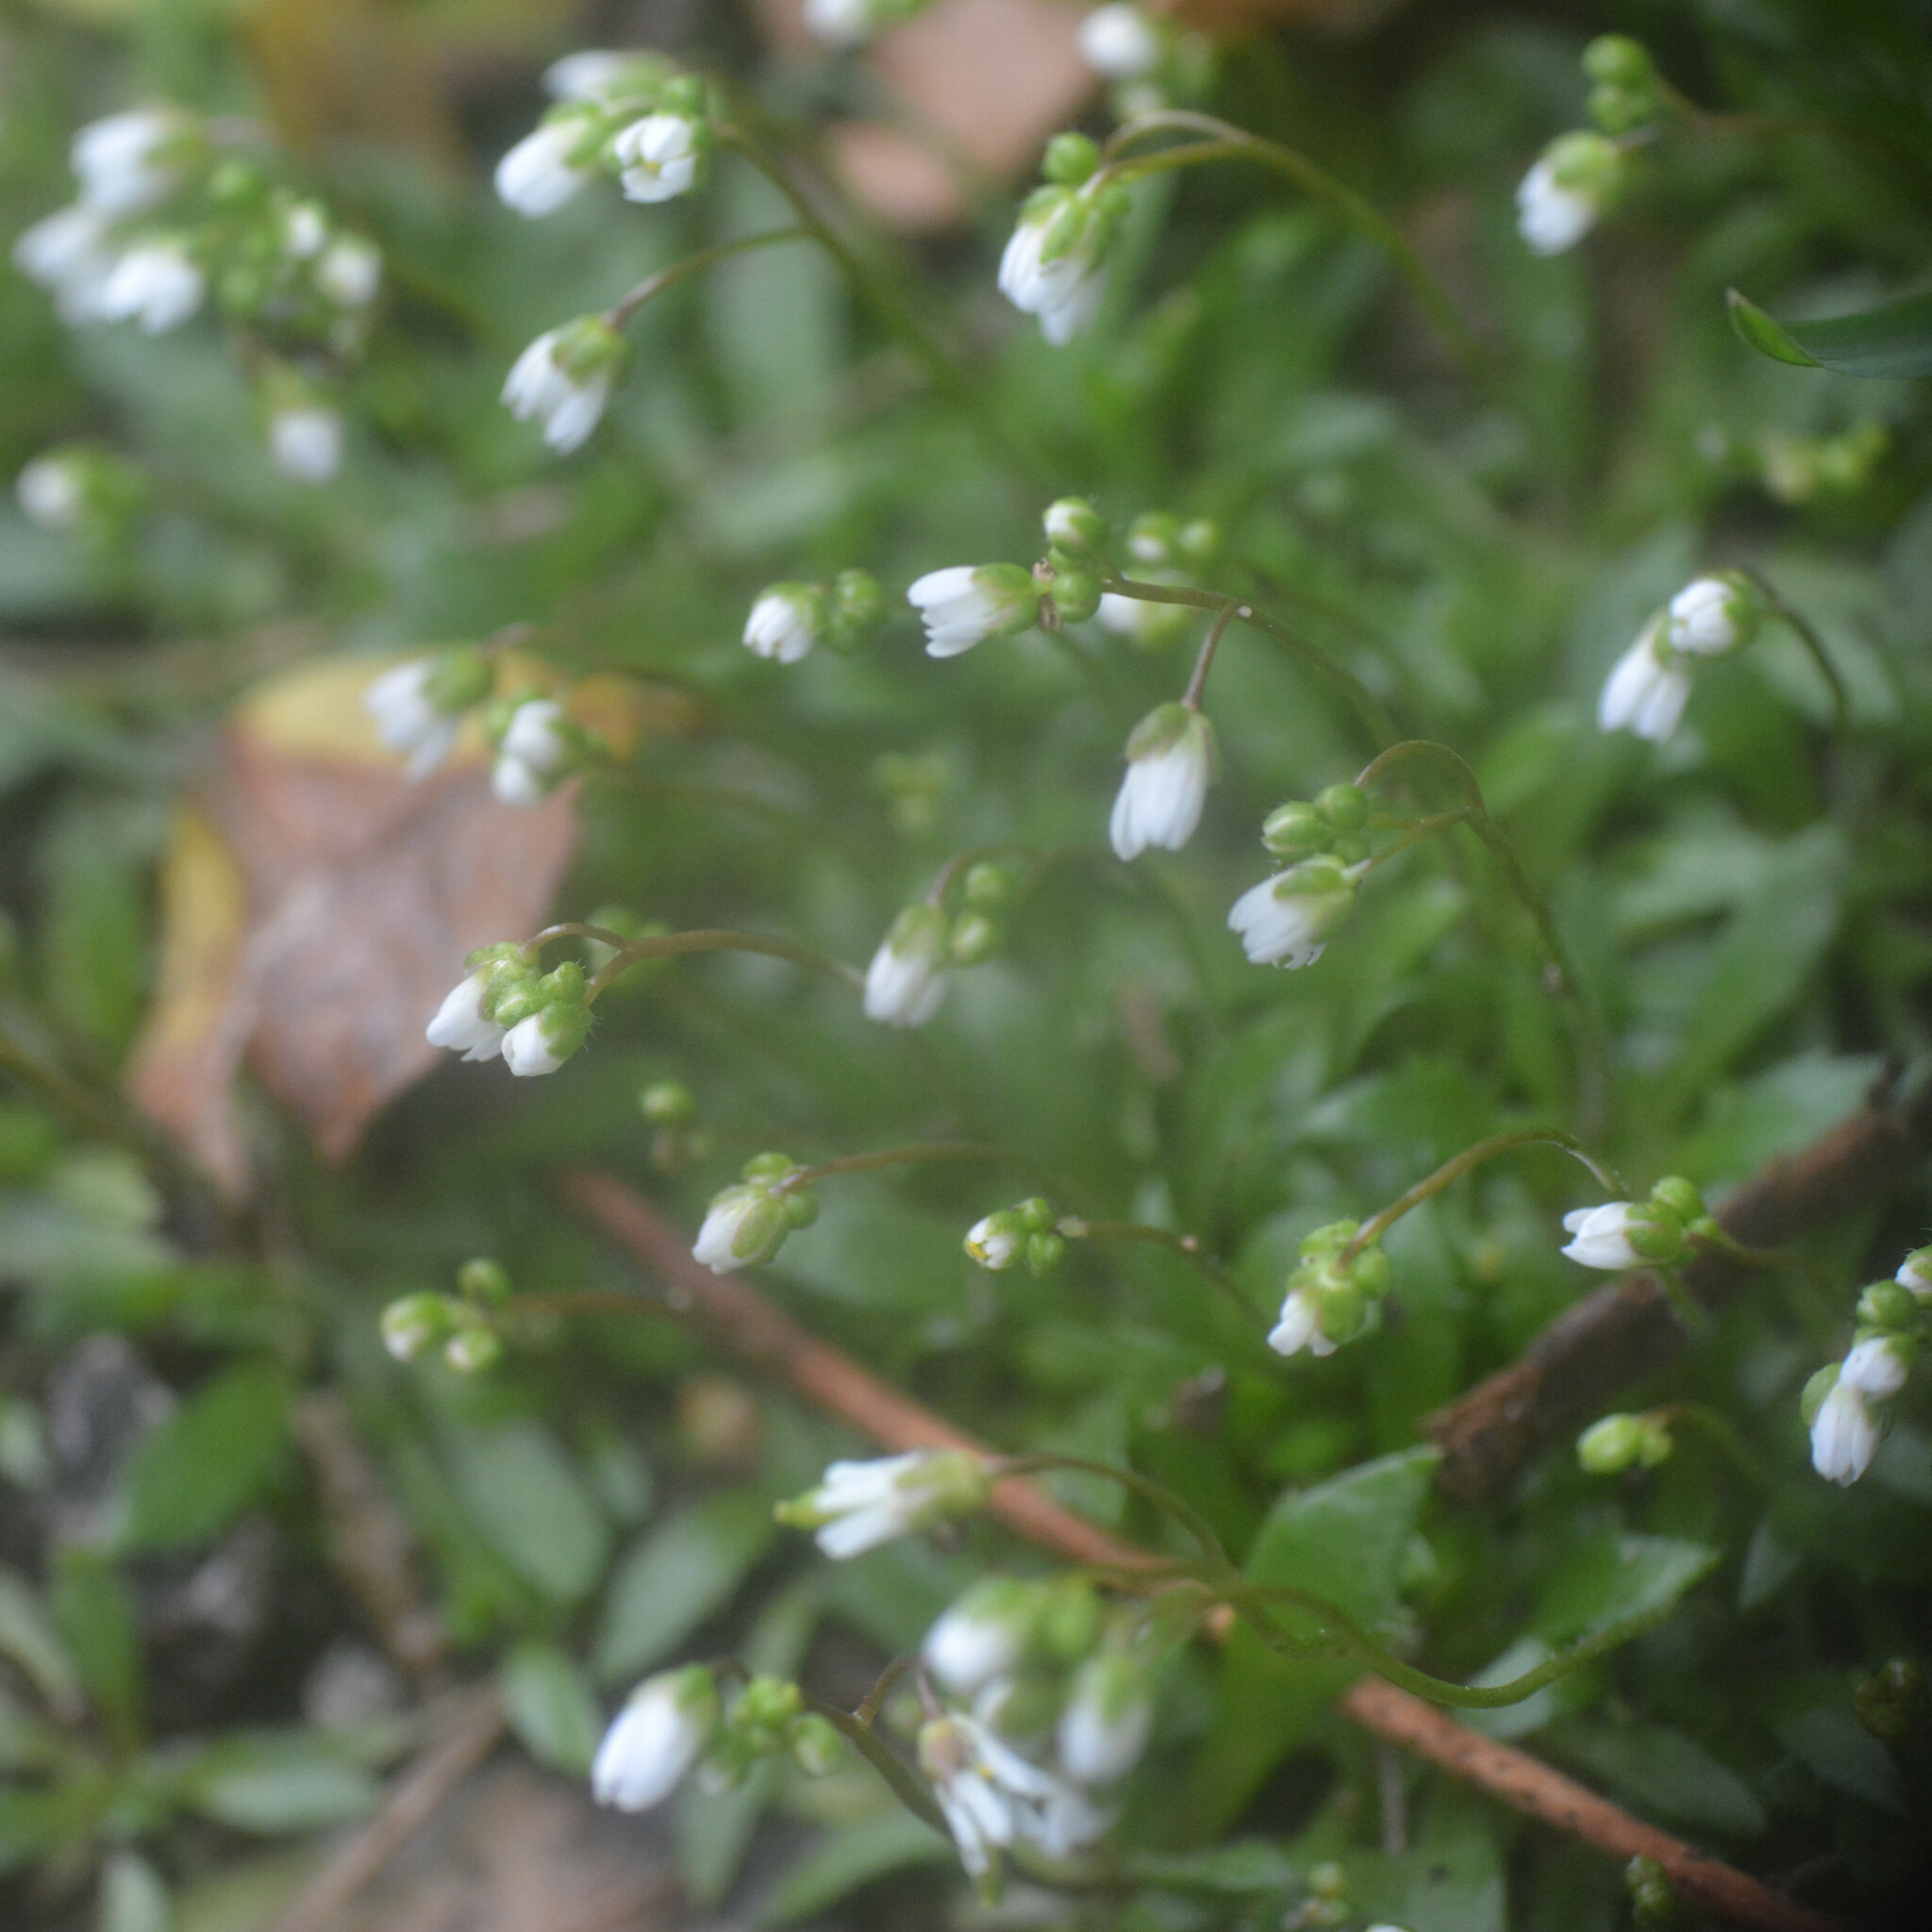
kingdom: Plantae
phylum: Tracheophyta
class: Magnoliopsida
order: Brassicales
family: Brassicaceae
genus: Draba
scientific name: Draba verna
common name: Spring draba
